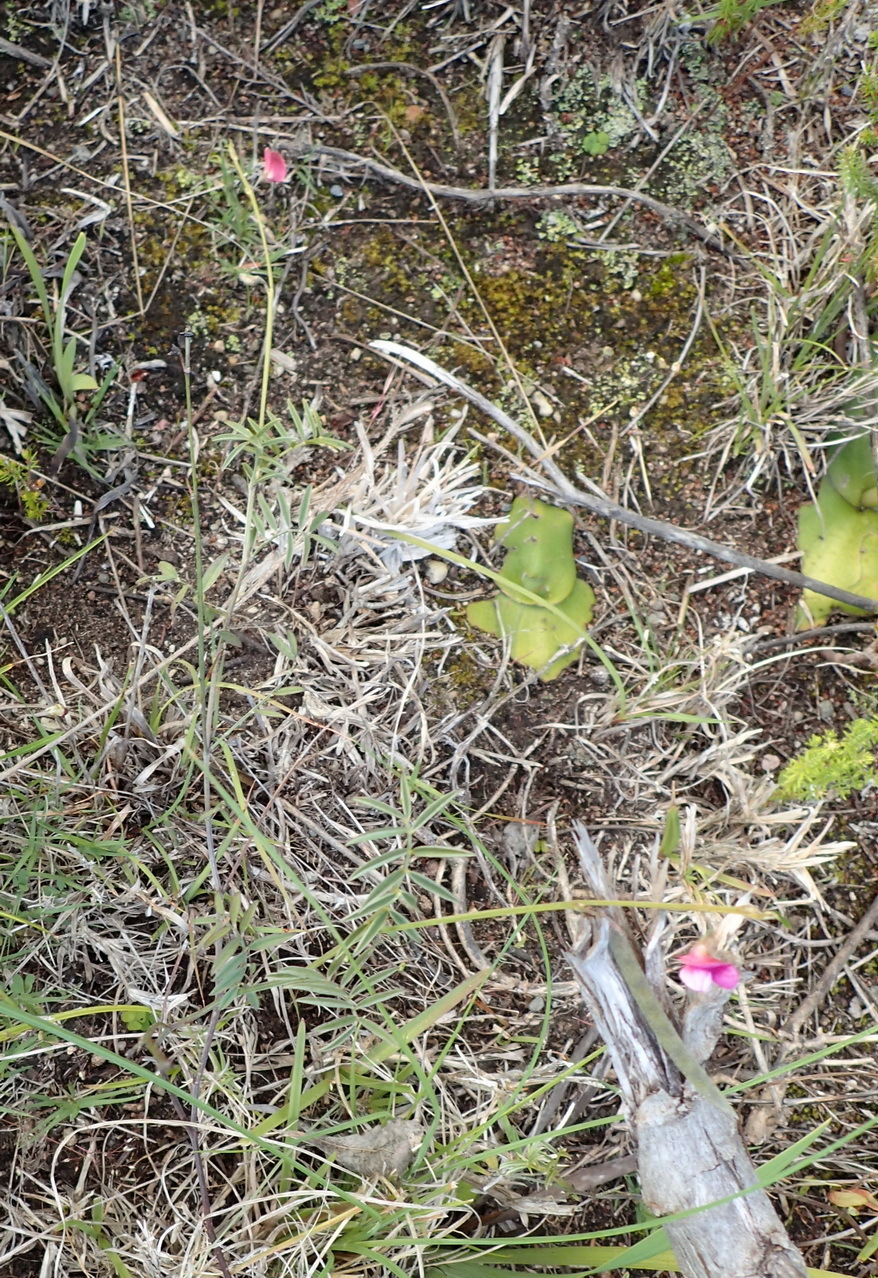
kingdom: Plantae
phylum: Tracheophyta
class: Magnoliopsida
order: Fabales
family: Fabaceae
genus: Tephrosia
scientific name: Tephrosia capensis
